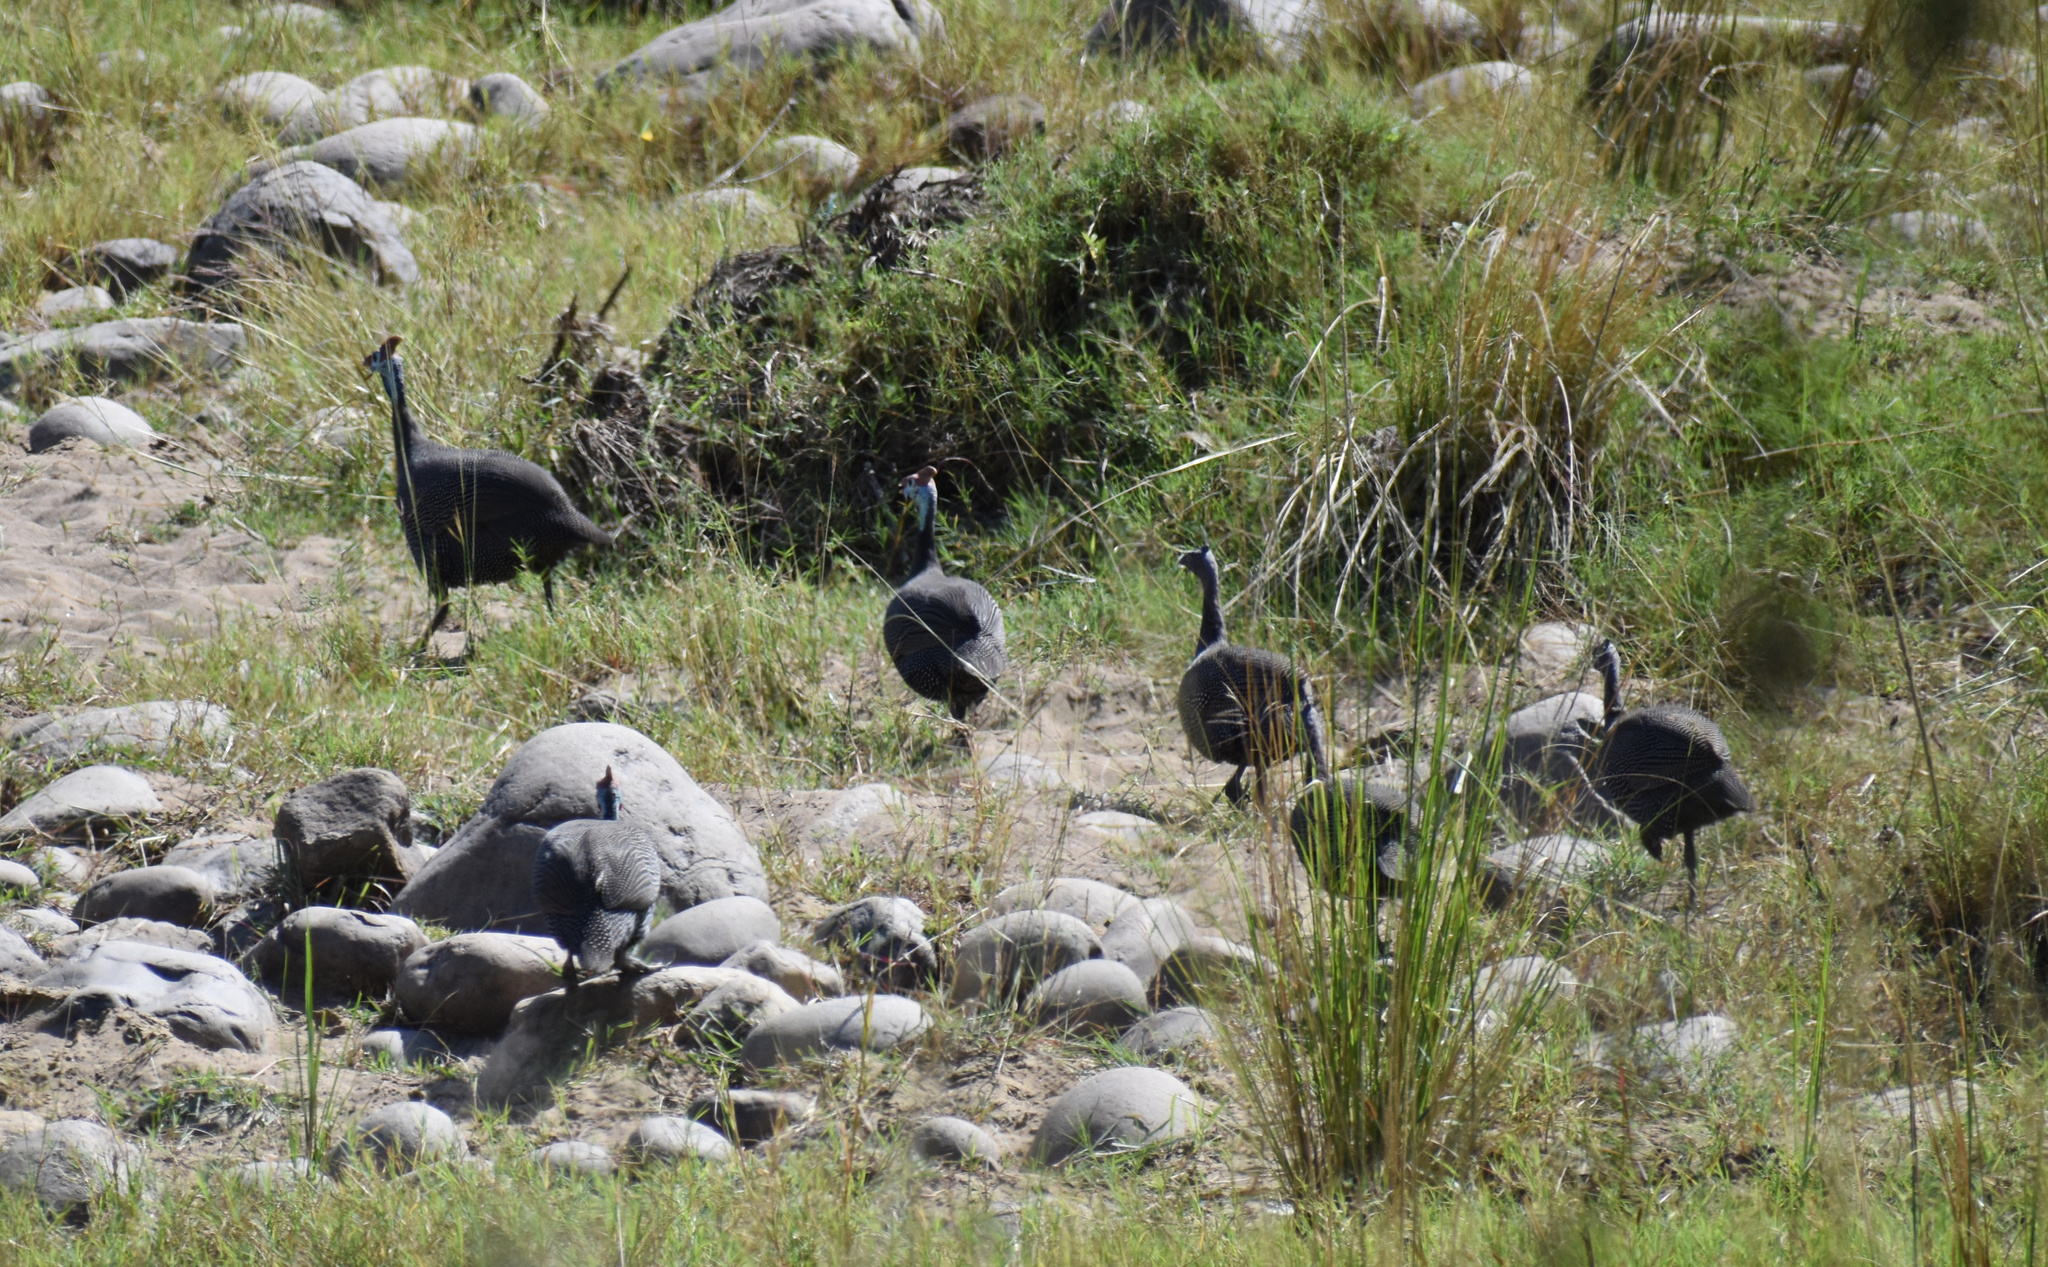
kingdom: Animalia
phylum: Chordata
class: Aves
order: Galliformes
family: Numididae
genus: Numida
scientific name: Numida meleagris
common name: Helmeted guineafowl
